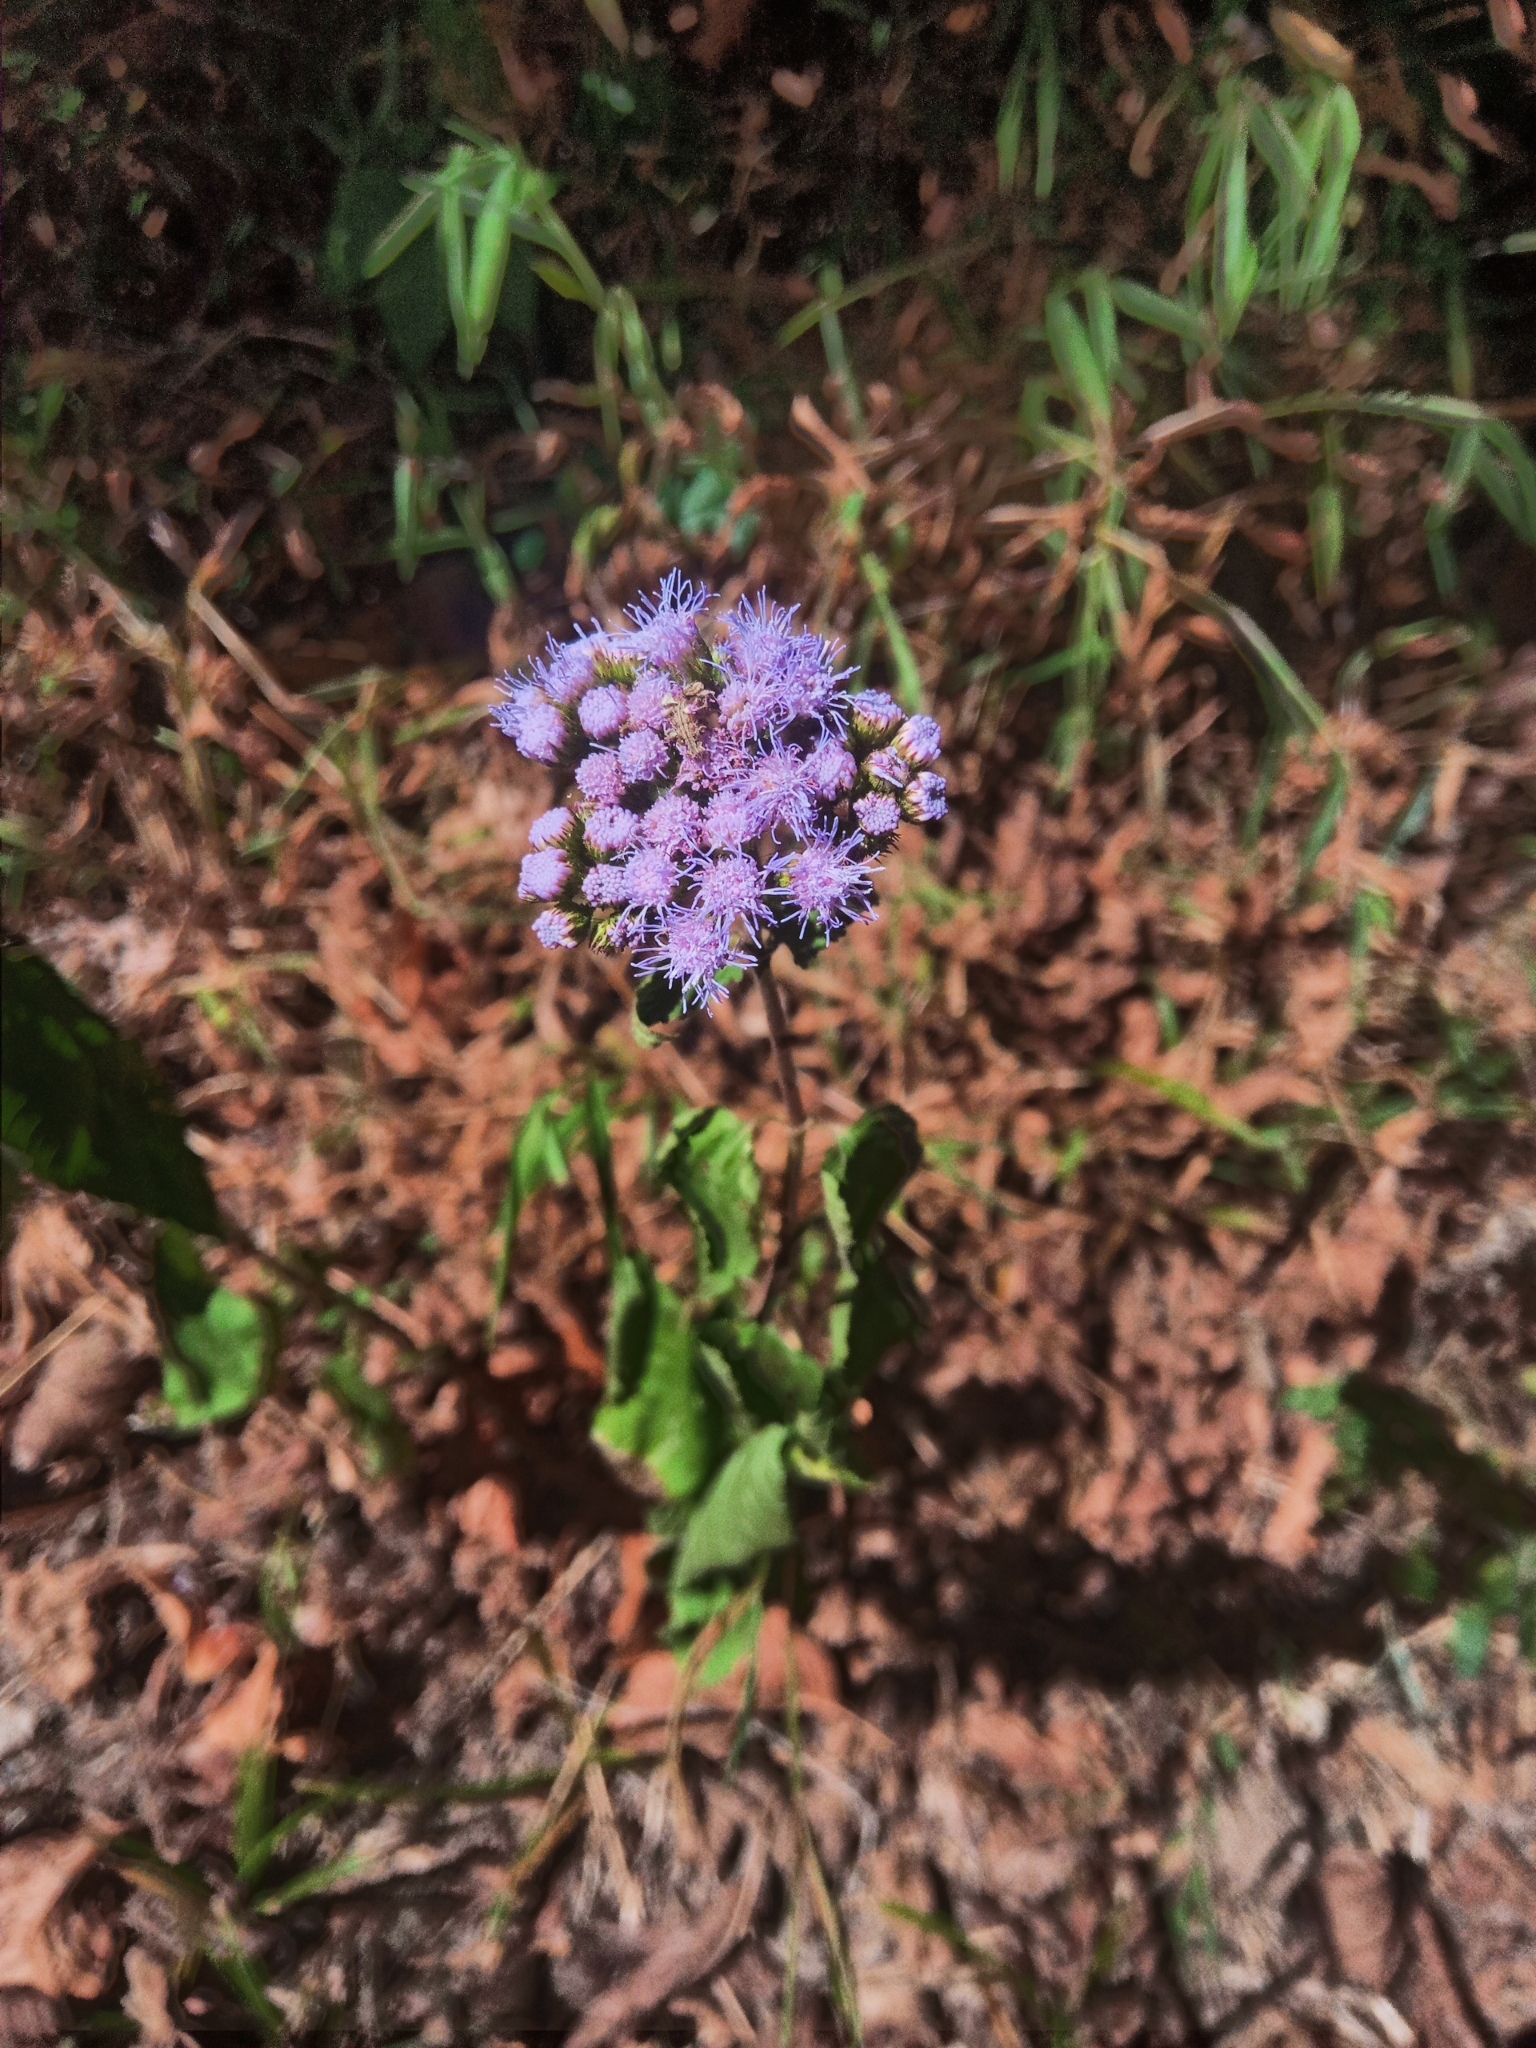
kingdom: Plantae
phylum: Tracheophyta
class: Magnoliopsida
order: Asterales
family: Asteraceae
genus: Conoclinium
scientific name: Conoclinium coelestinum
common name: Blue mistflower
